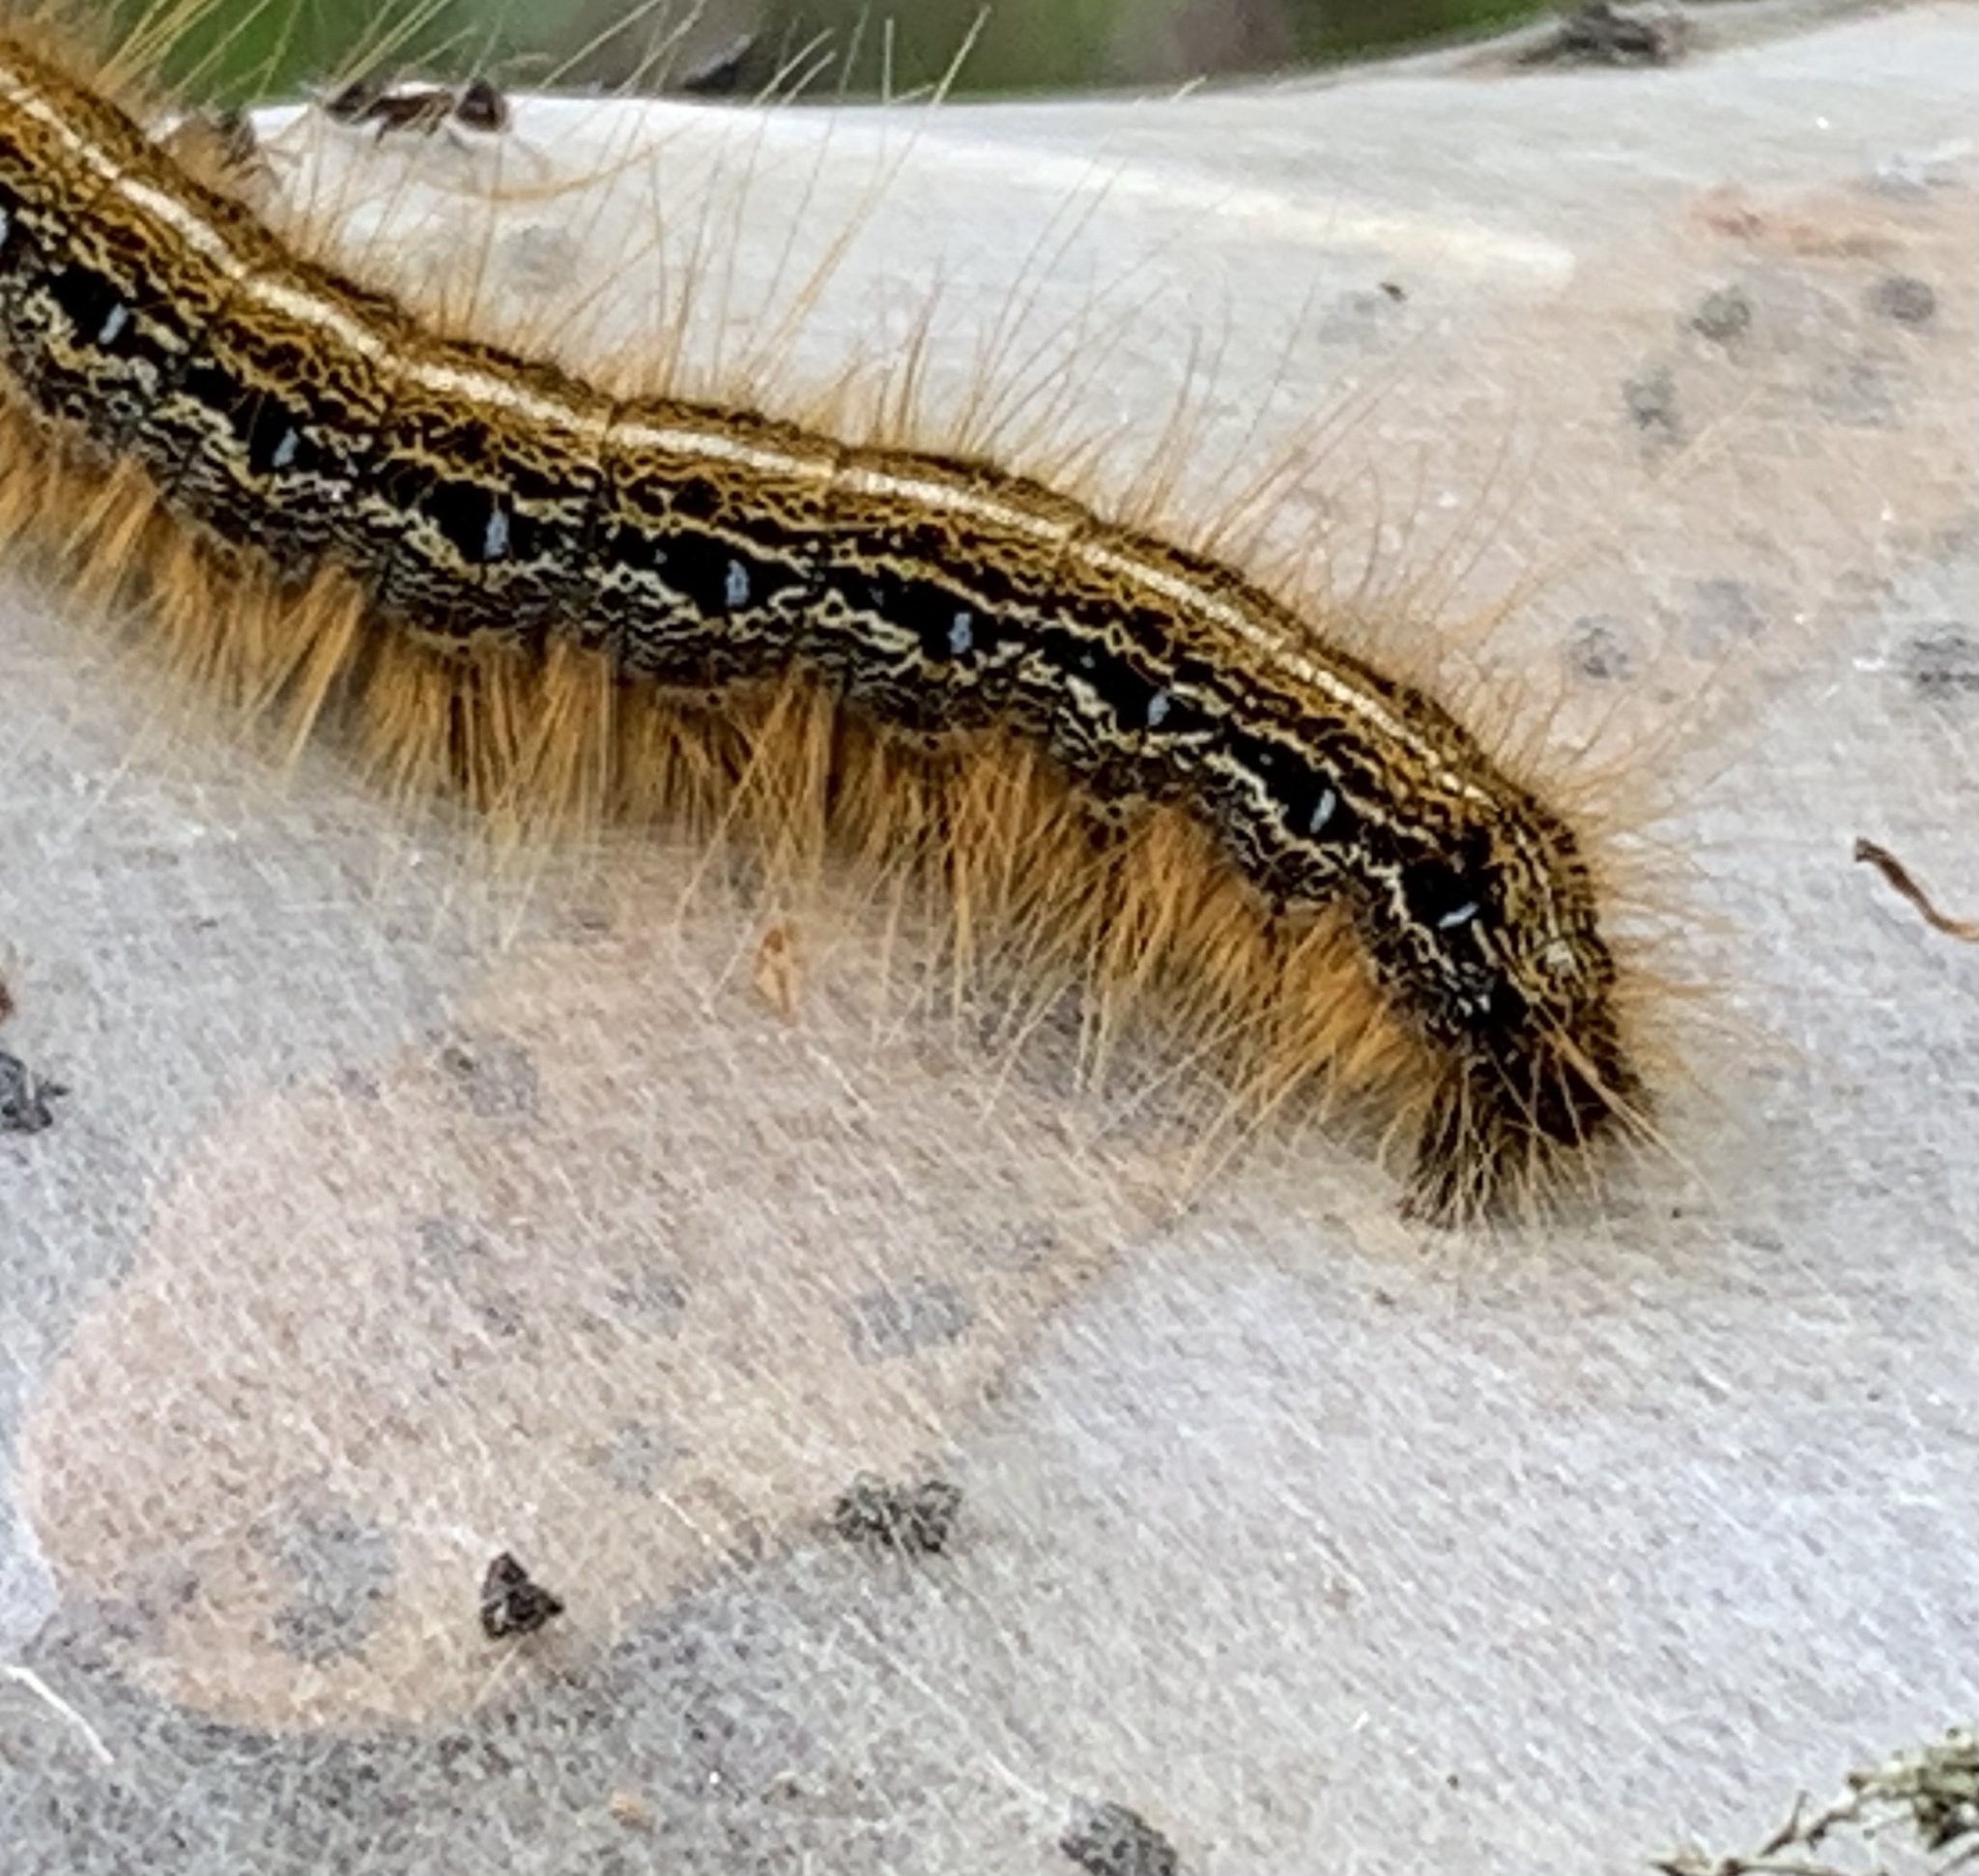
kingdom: Animalia
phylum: Arthropoda
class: Insecta
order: Lepidoptera
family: Lasiocampidae
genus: Malacosoma
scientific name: Malacosoma americana
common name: Eastern tent caterpillar moth
